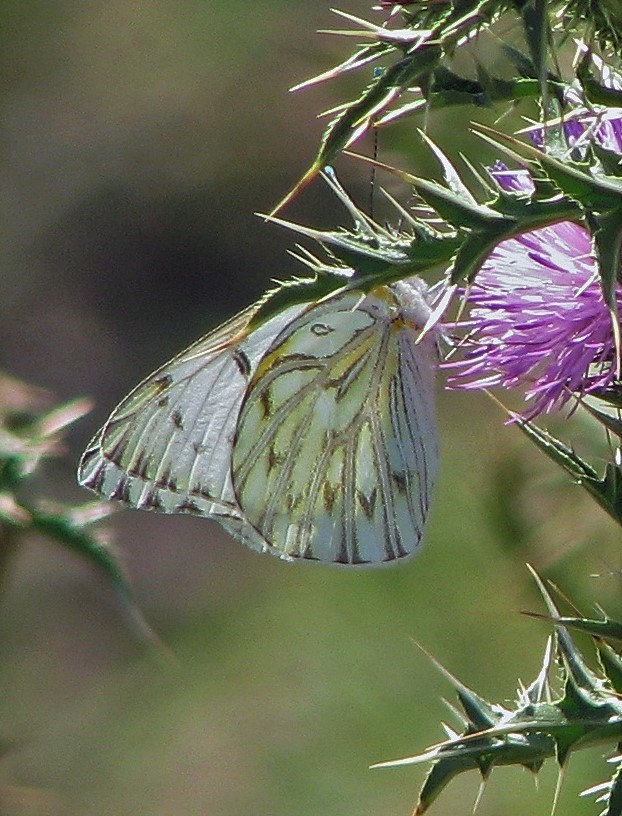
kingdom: Animalia
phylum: Arthropoda
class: Insecta
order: Lepidoptera
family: Pieridae
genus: Tatochila
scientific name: Tatochila autodice
